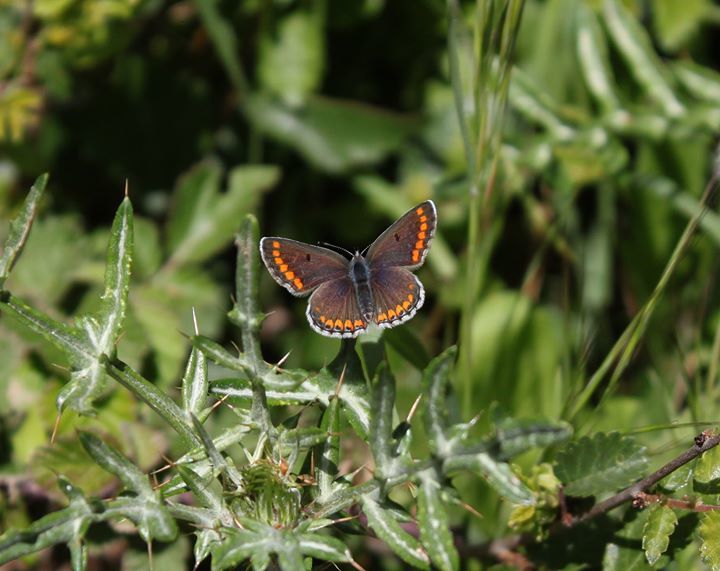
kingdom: Animalia
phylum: Arthropoda
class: Insecta
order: Lepidoptera
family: Lycaenidae
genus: Aricia
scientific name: Aricia agestis
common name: Brown argus
